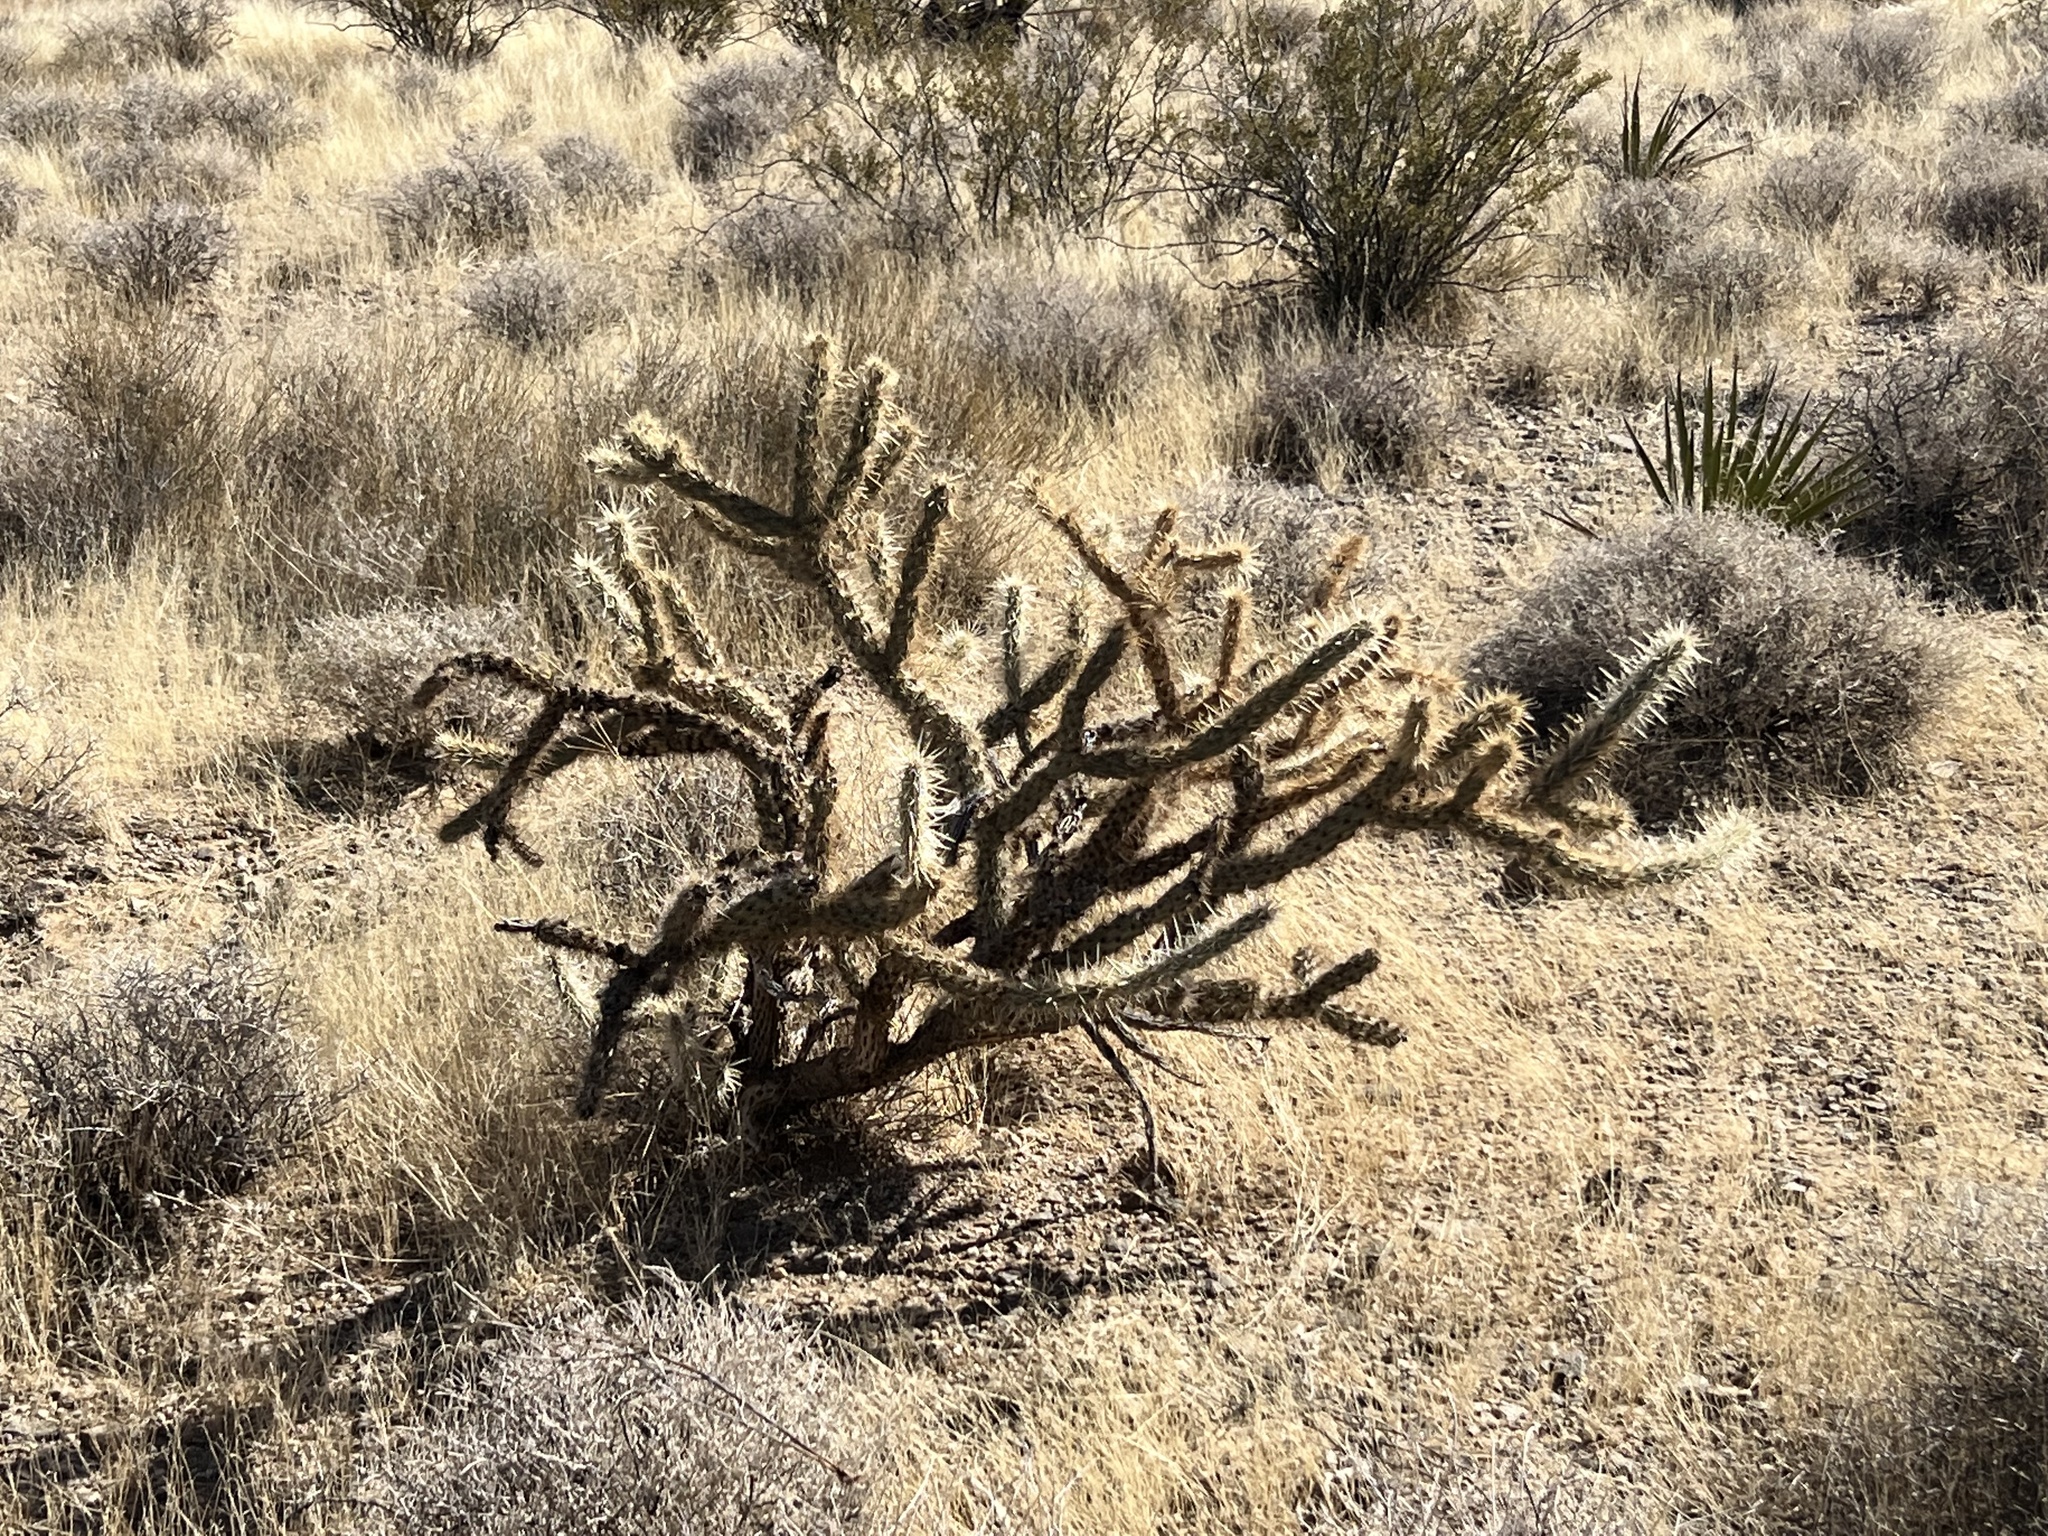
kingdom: Plantae
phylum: Tracheophyta
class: Magnoliopsida
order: Caryophyllales
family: Cactaceae
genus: Cylindropuntia
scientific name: Cylindropuntia acanthocarpa
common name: Buckhorn cholla
